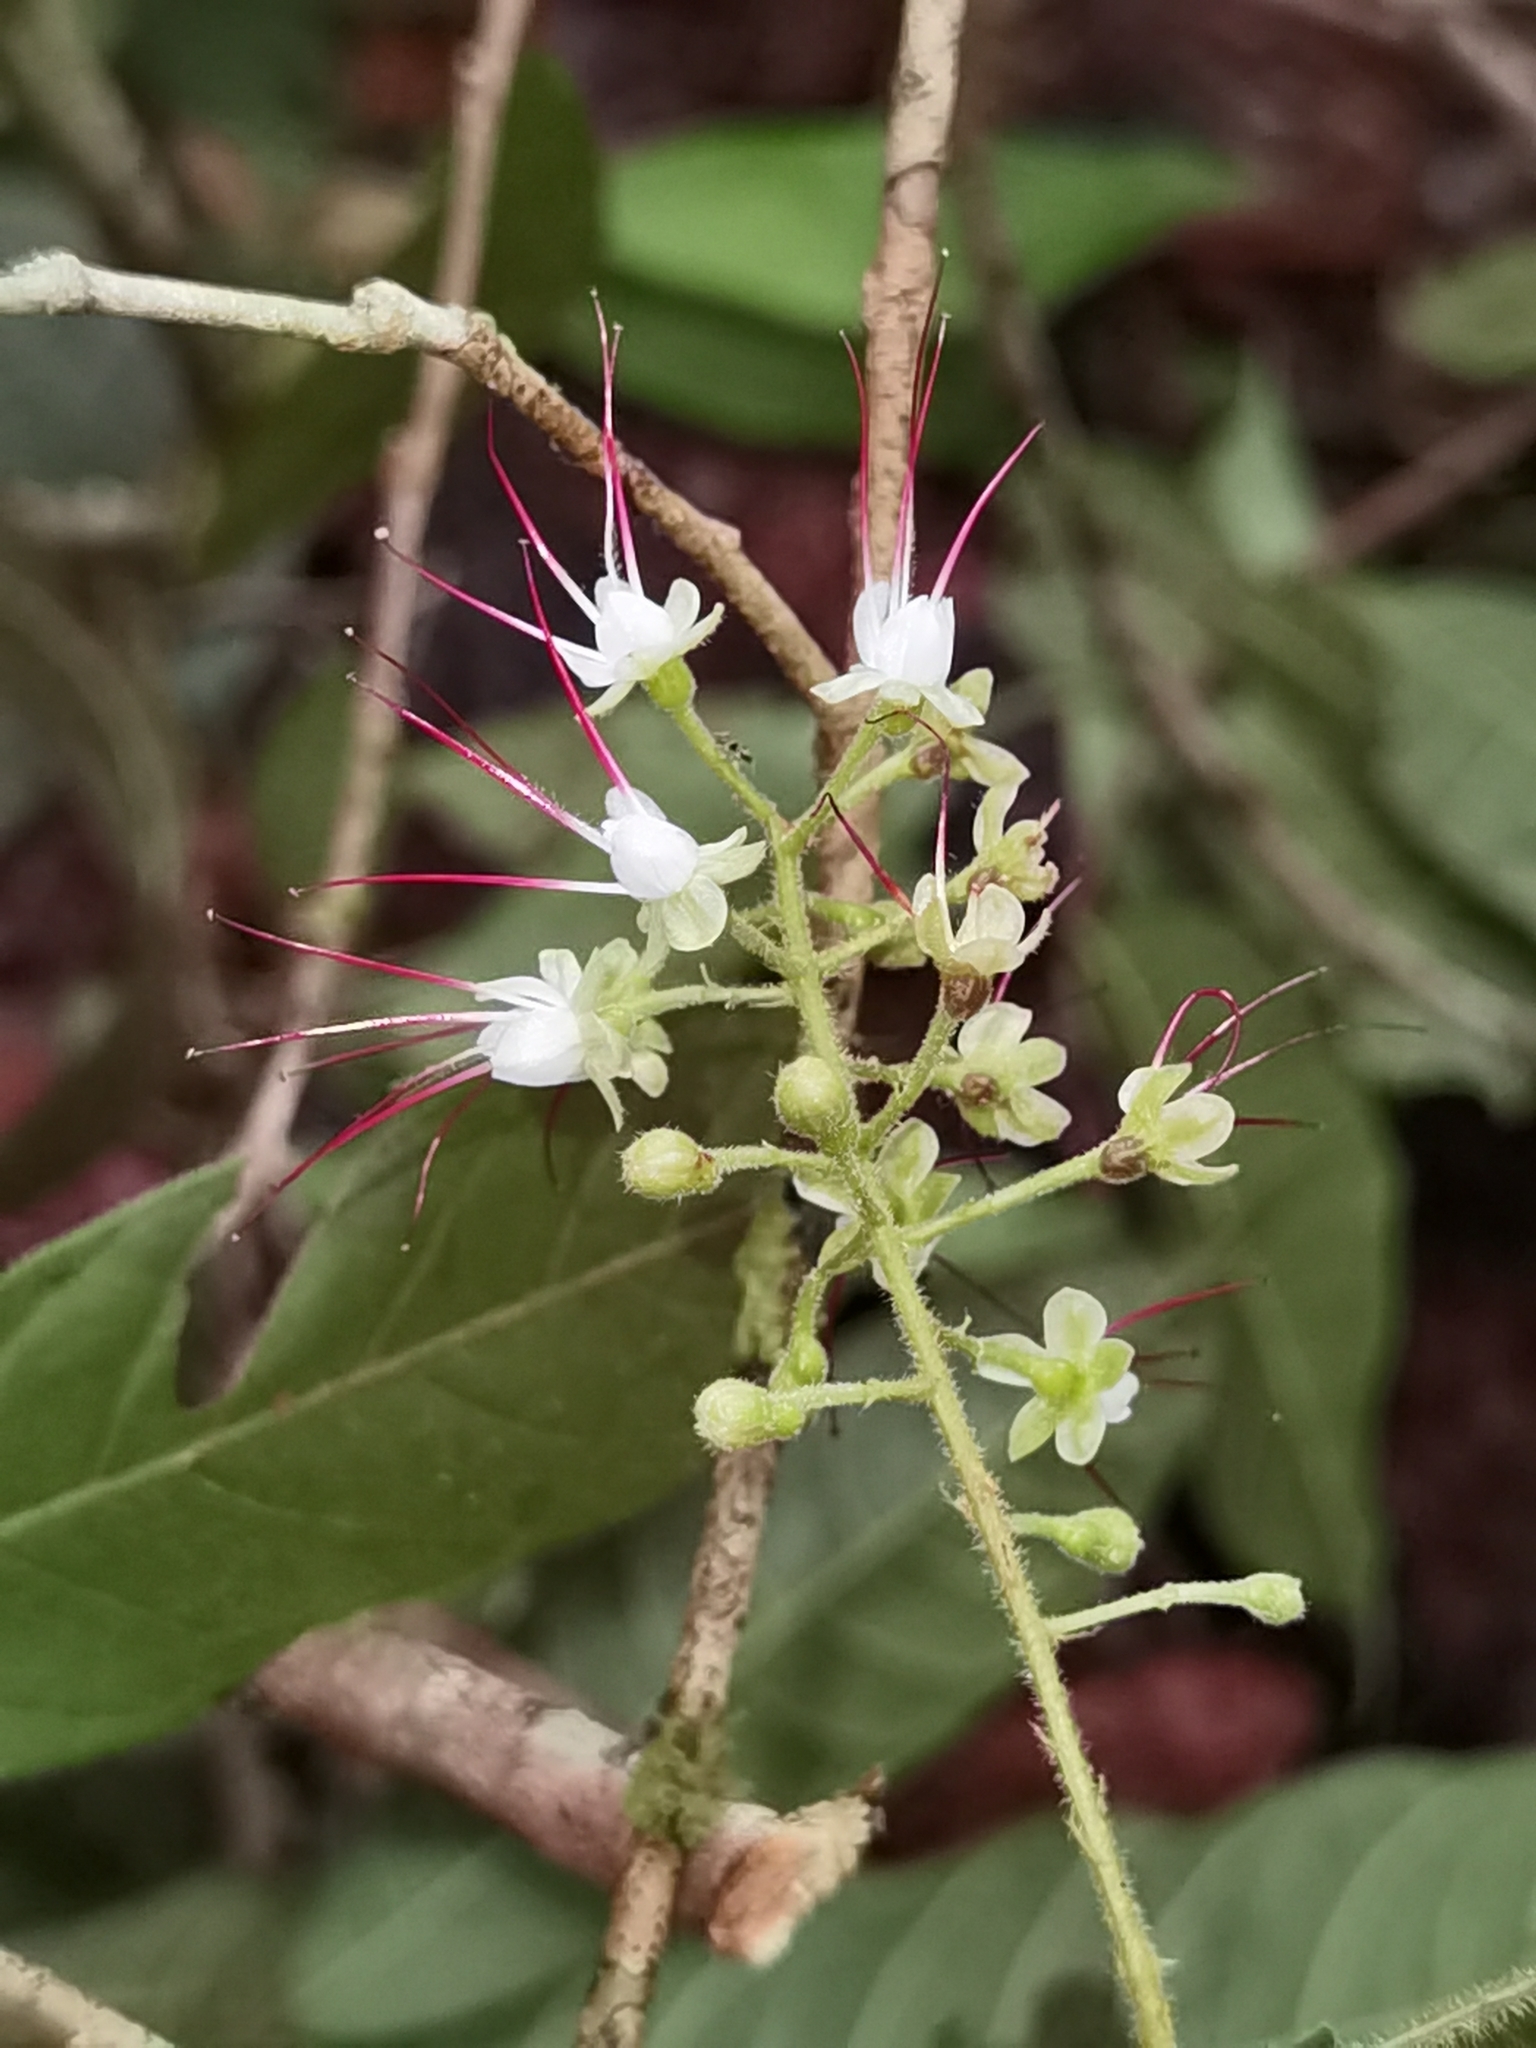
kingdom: Plantae
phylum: Tracheophyta
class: Magnoliopsida
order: Malpighiales
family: Chrysobalanaceae
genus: Hirtella
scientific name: Hirtella triandra
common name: Hairy plum
